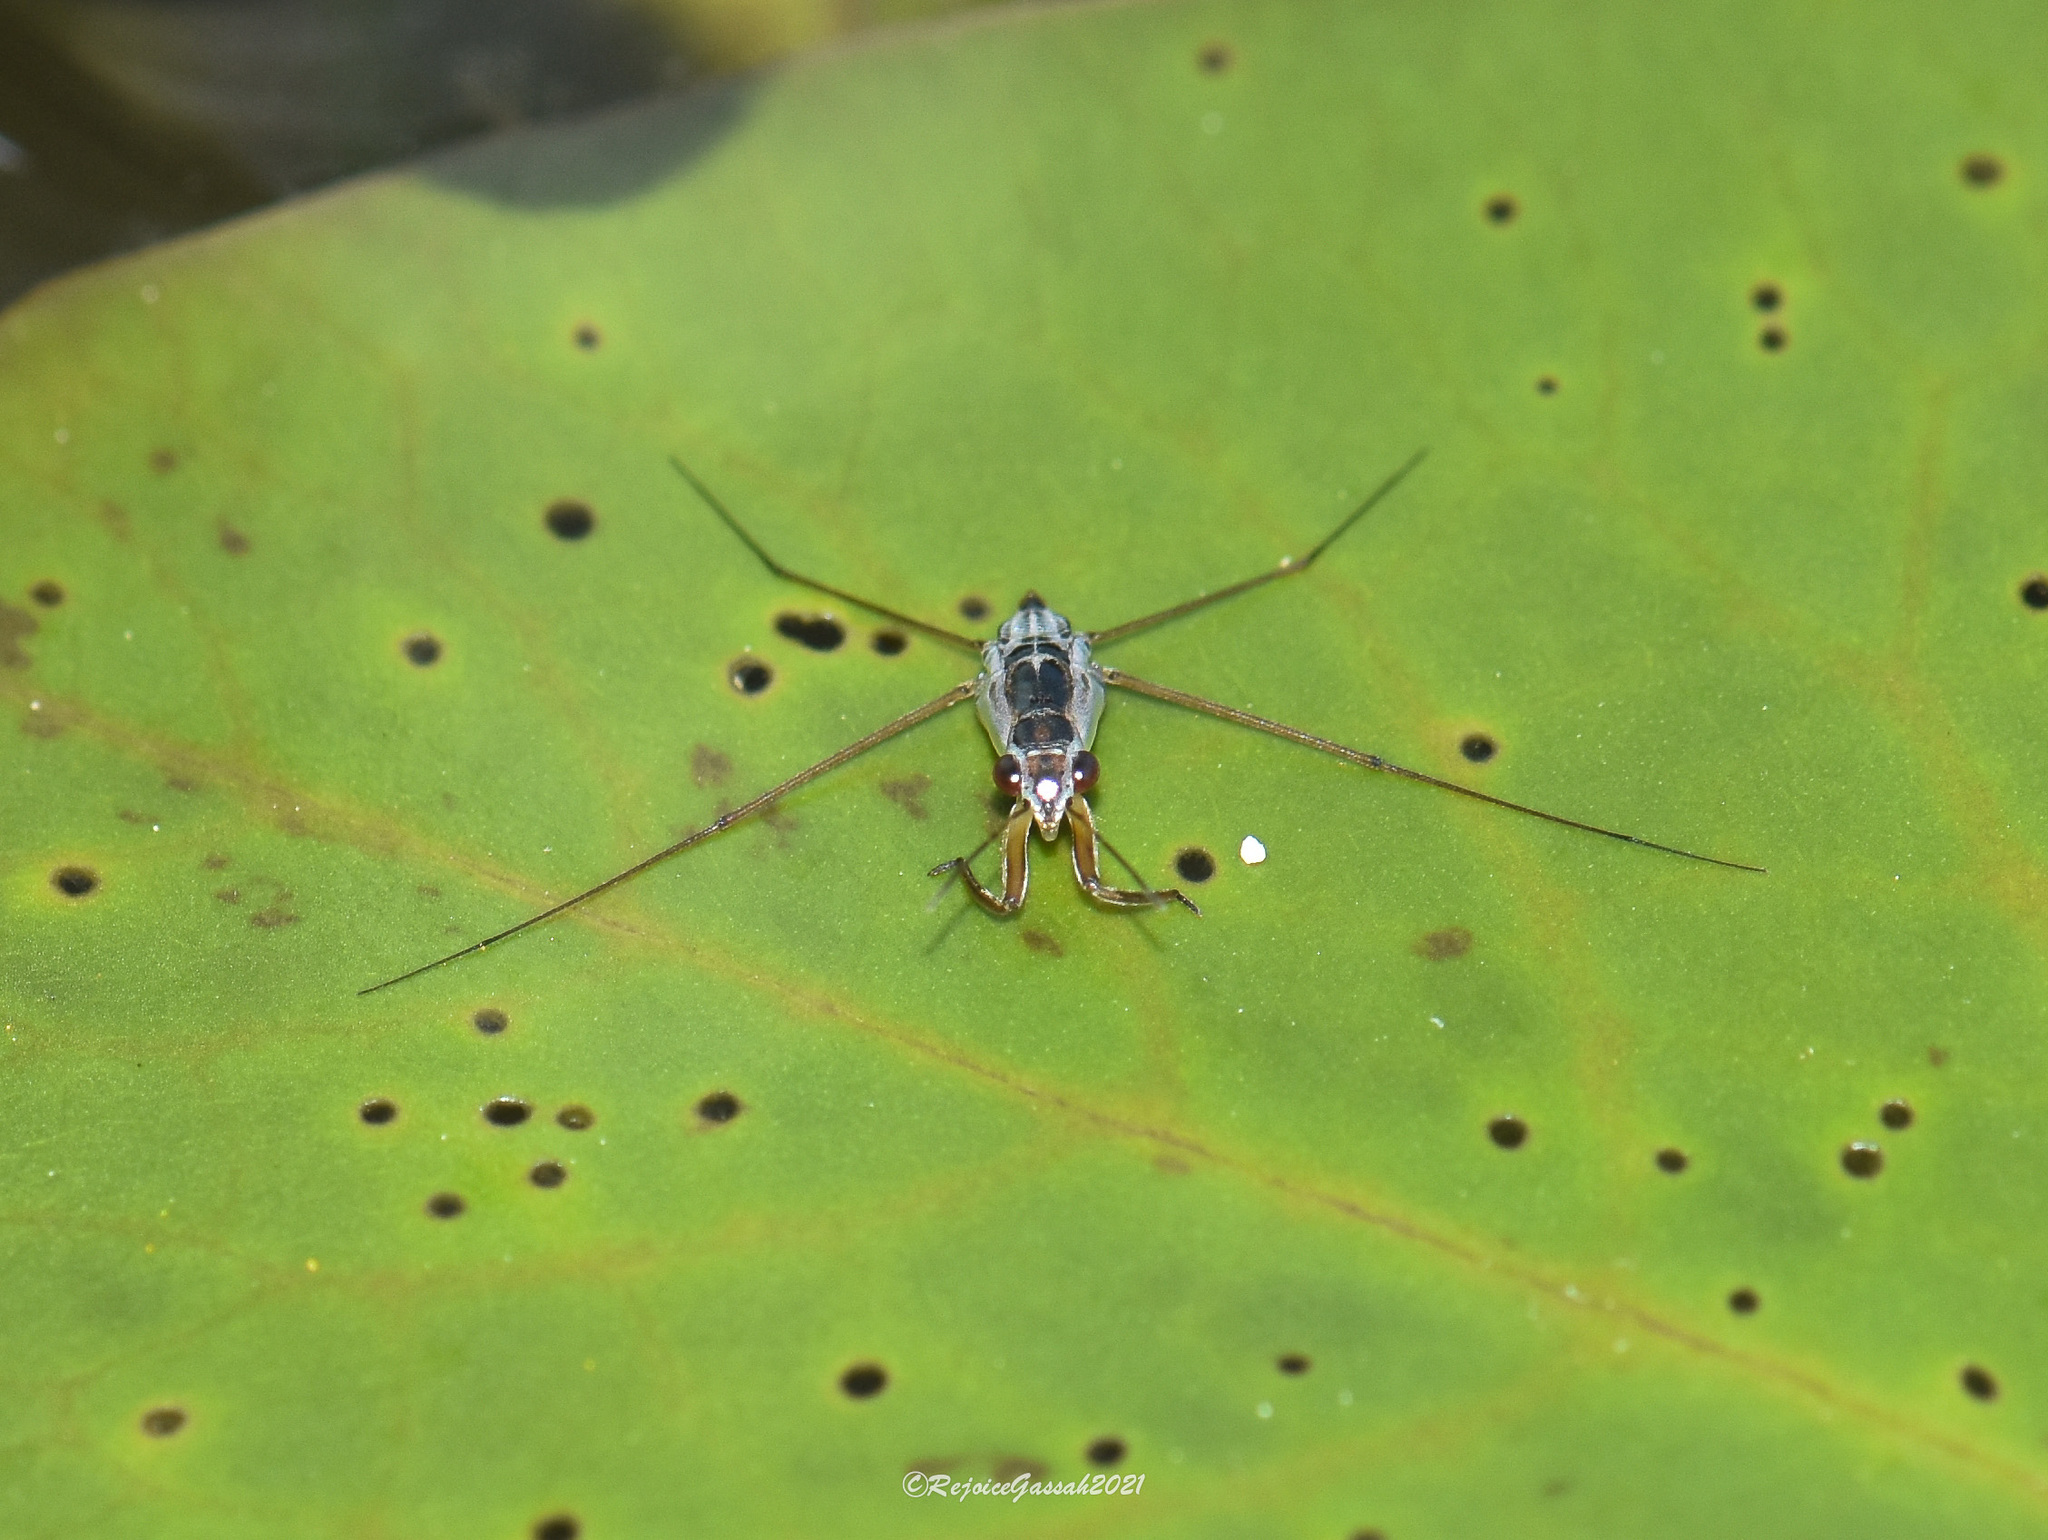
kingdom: Animalia
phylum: Arthropoda
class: Insecta
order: Hemiptera
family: Gerridae
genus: Neogerris
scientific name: Neogerris
